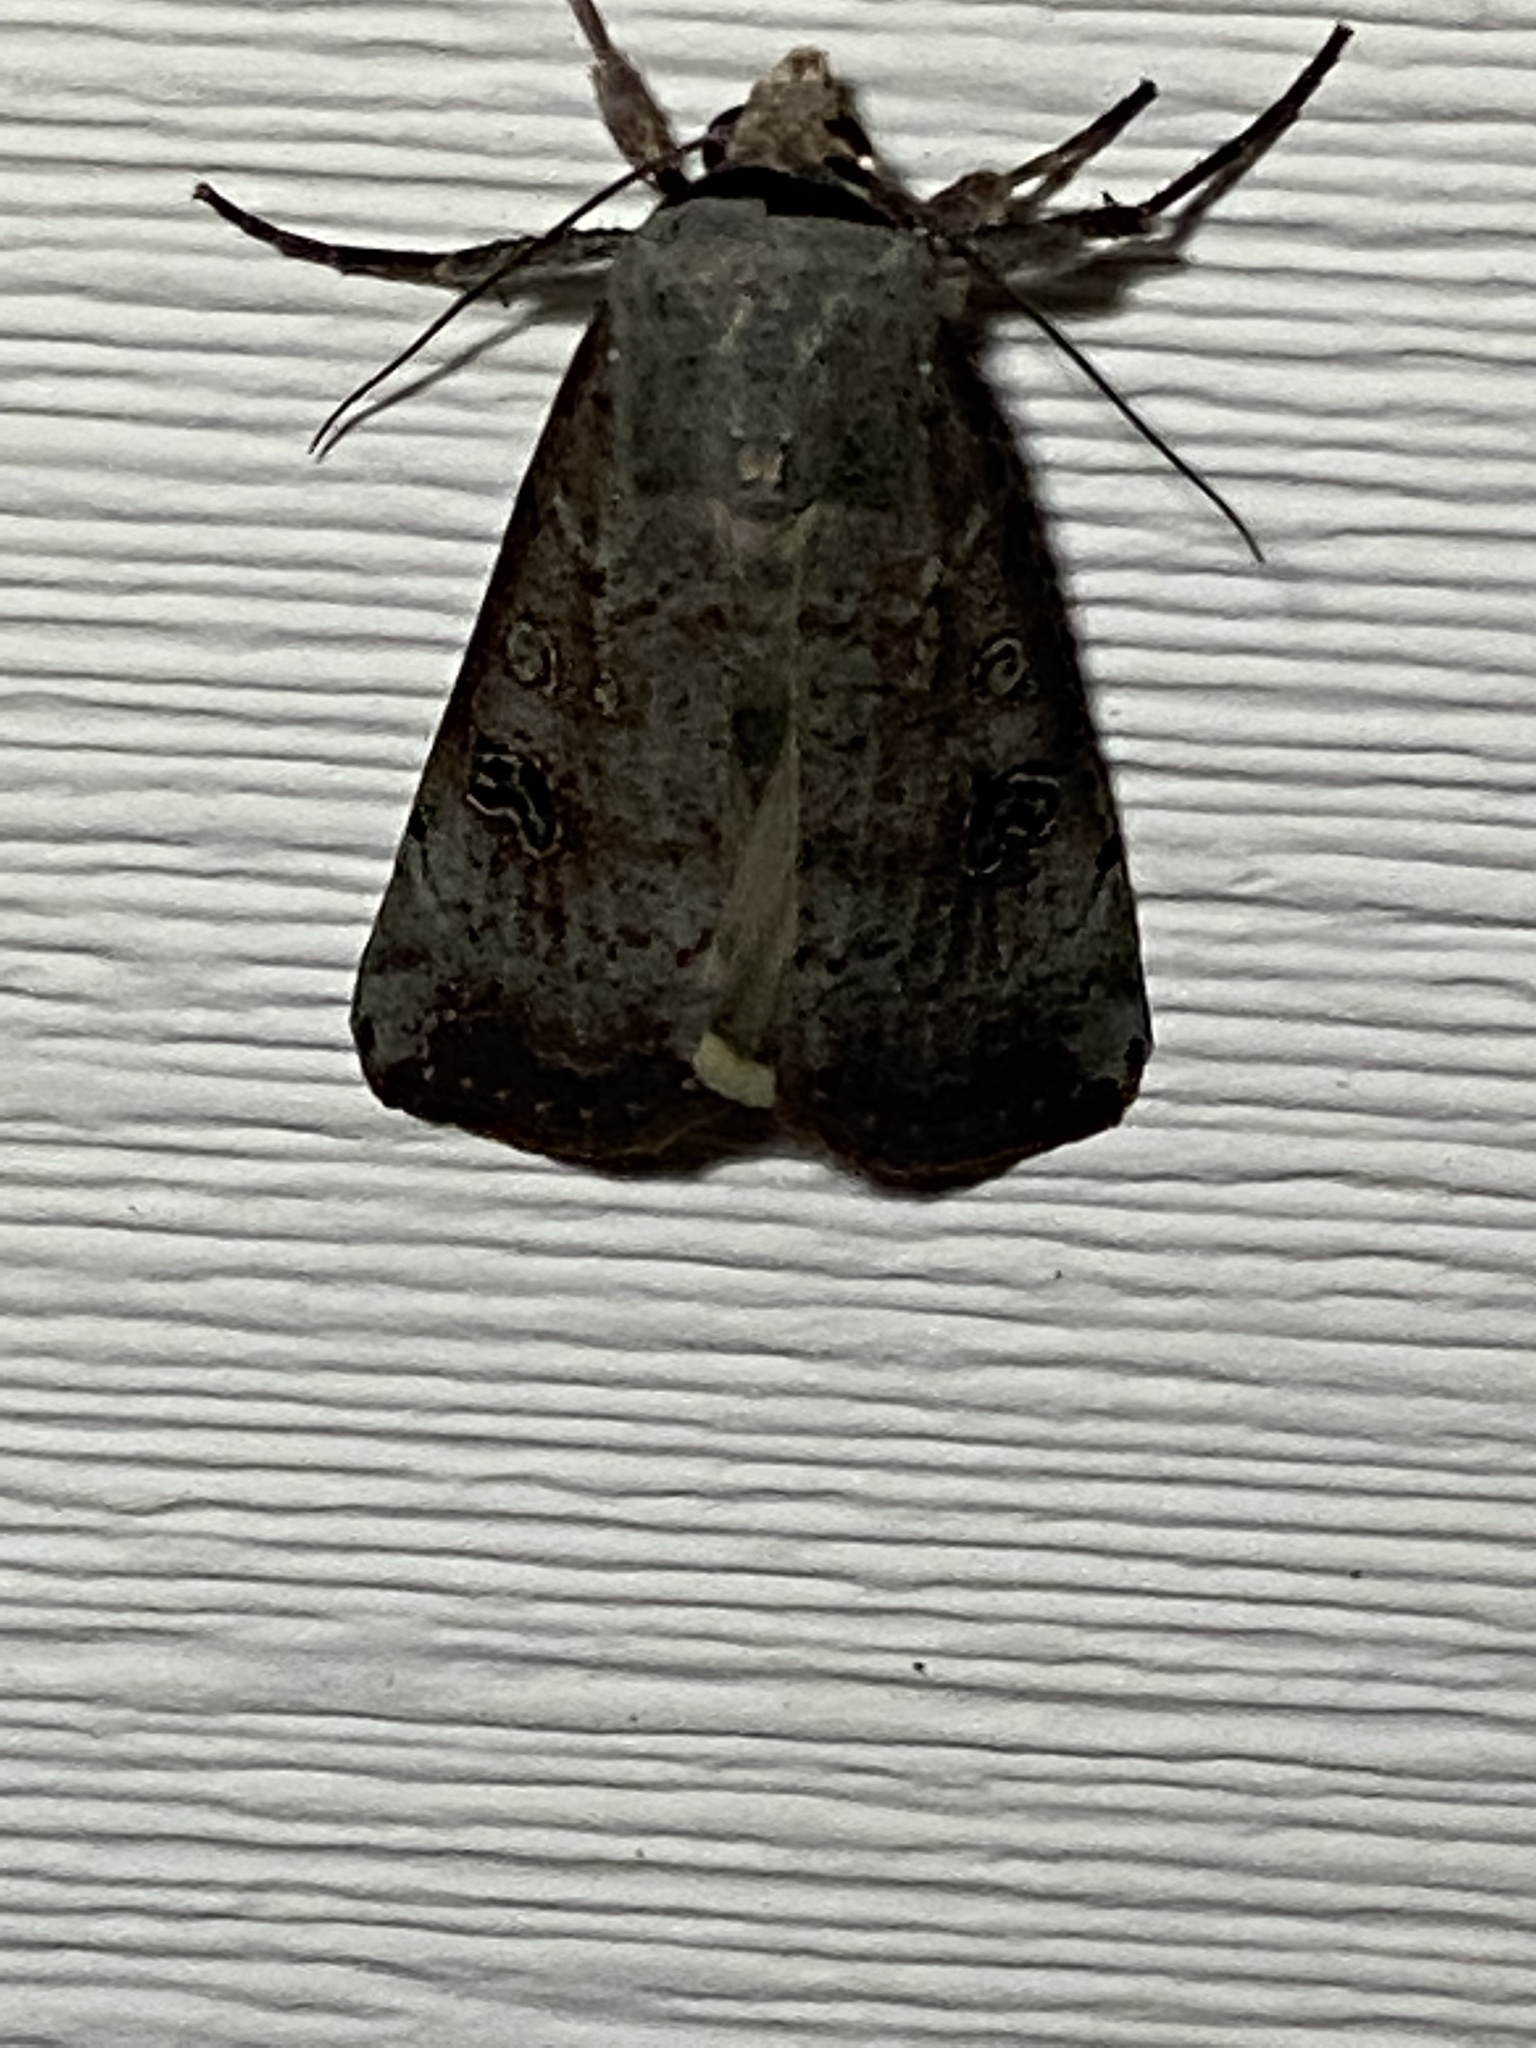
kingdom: Animalia
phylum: Arthropoda
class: Insecta
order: Lepidoptera
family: Noctuidae
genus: Anicla
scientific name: Anicla infecta
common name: Green cutworm
